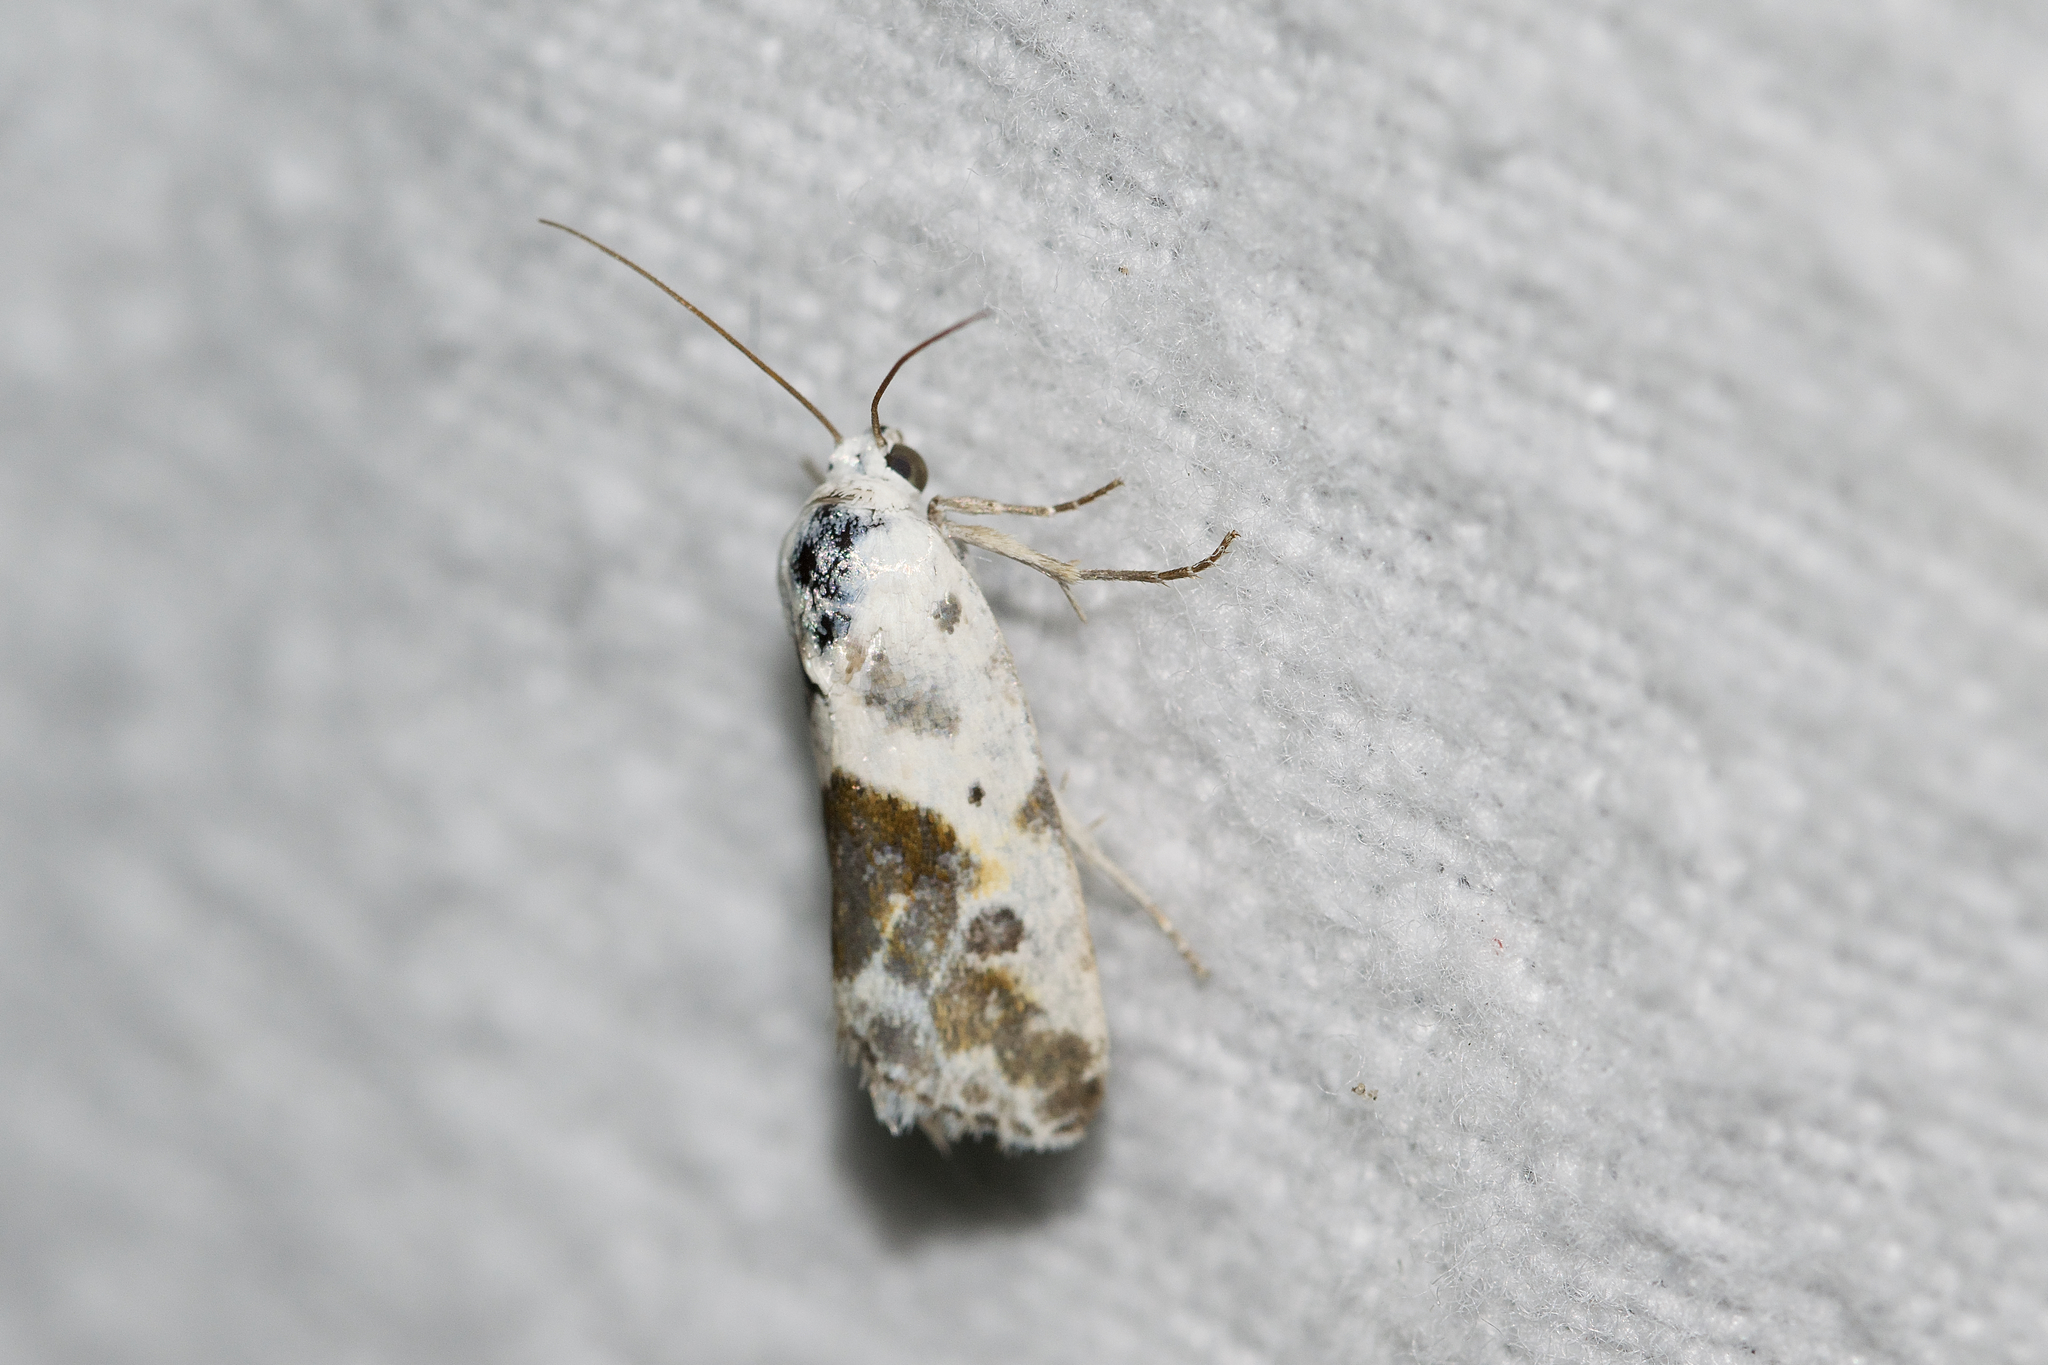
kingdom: Animalia
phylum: Arthropoda
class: Insecta
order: Lepidoptera
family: Noctuidae
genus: Acontia
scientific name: Acontia candefacta
